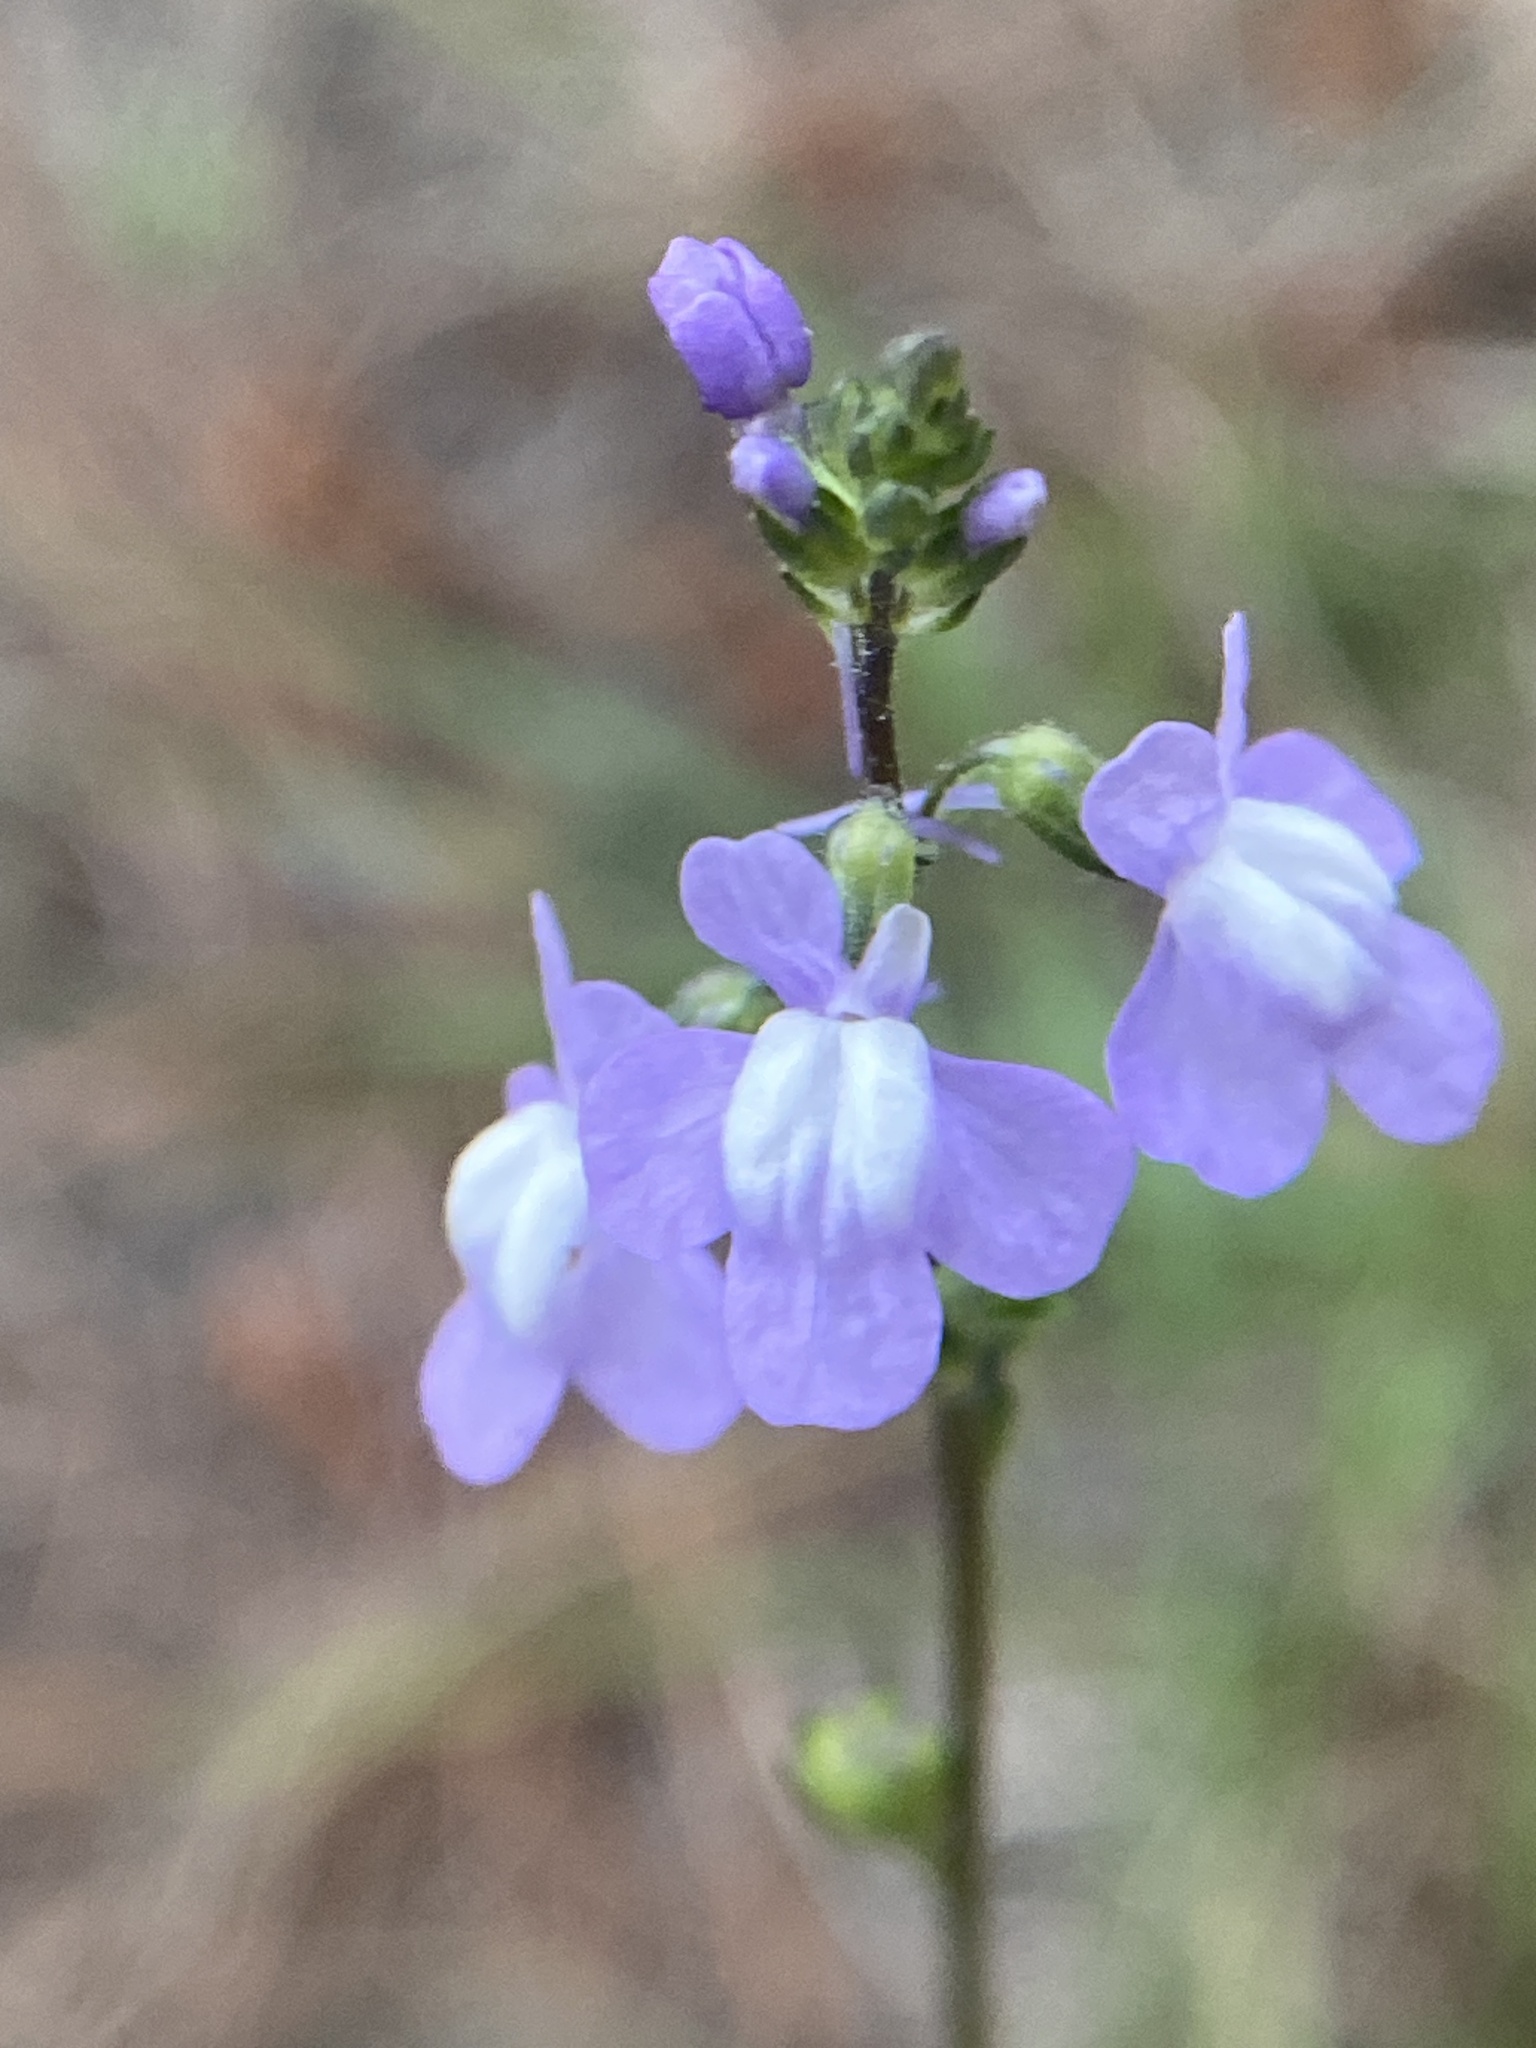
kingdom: Plantae
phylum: Tracheophyta
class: Magnoliopsida
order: Lamiales
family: Plantaginaceae
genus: Nuttallanthus
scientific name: Nuttallanthus canadensis
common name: Blue toadflax
